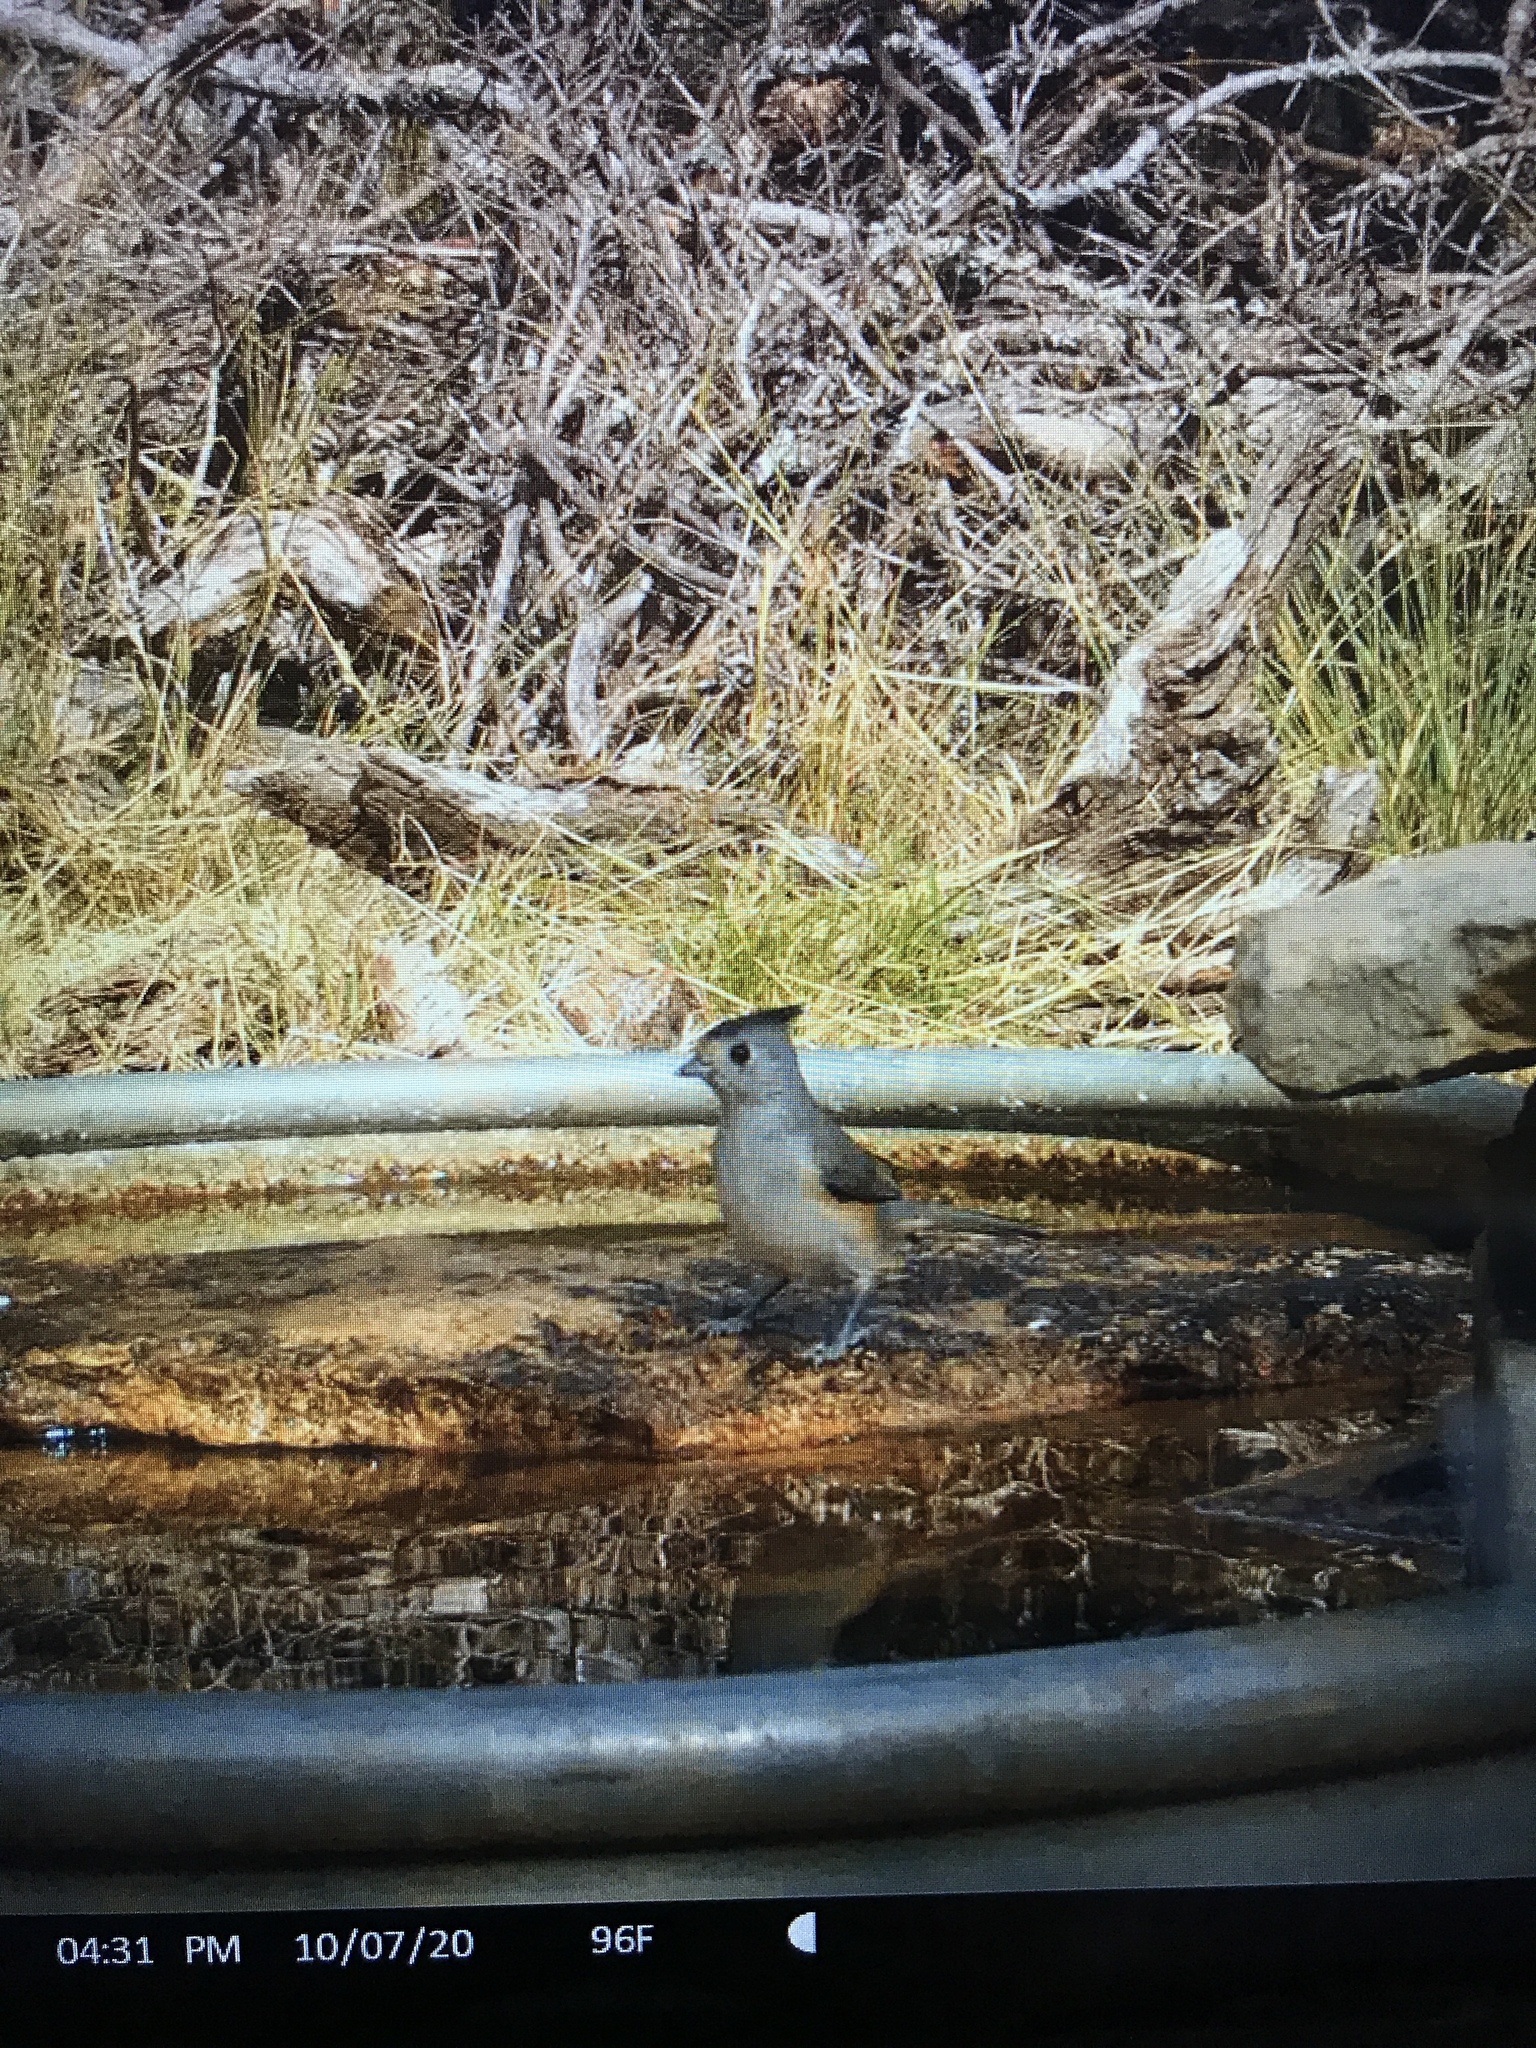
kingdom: Animalia
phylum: Chordata
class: Aves
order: Passeriformes
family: Paridae
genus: Baeolophus
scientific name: Baeolophus atricristatus
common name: Black-crested titmouse
